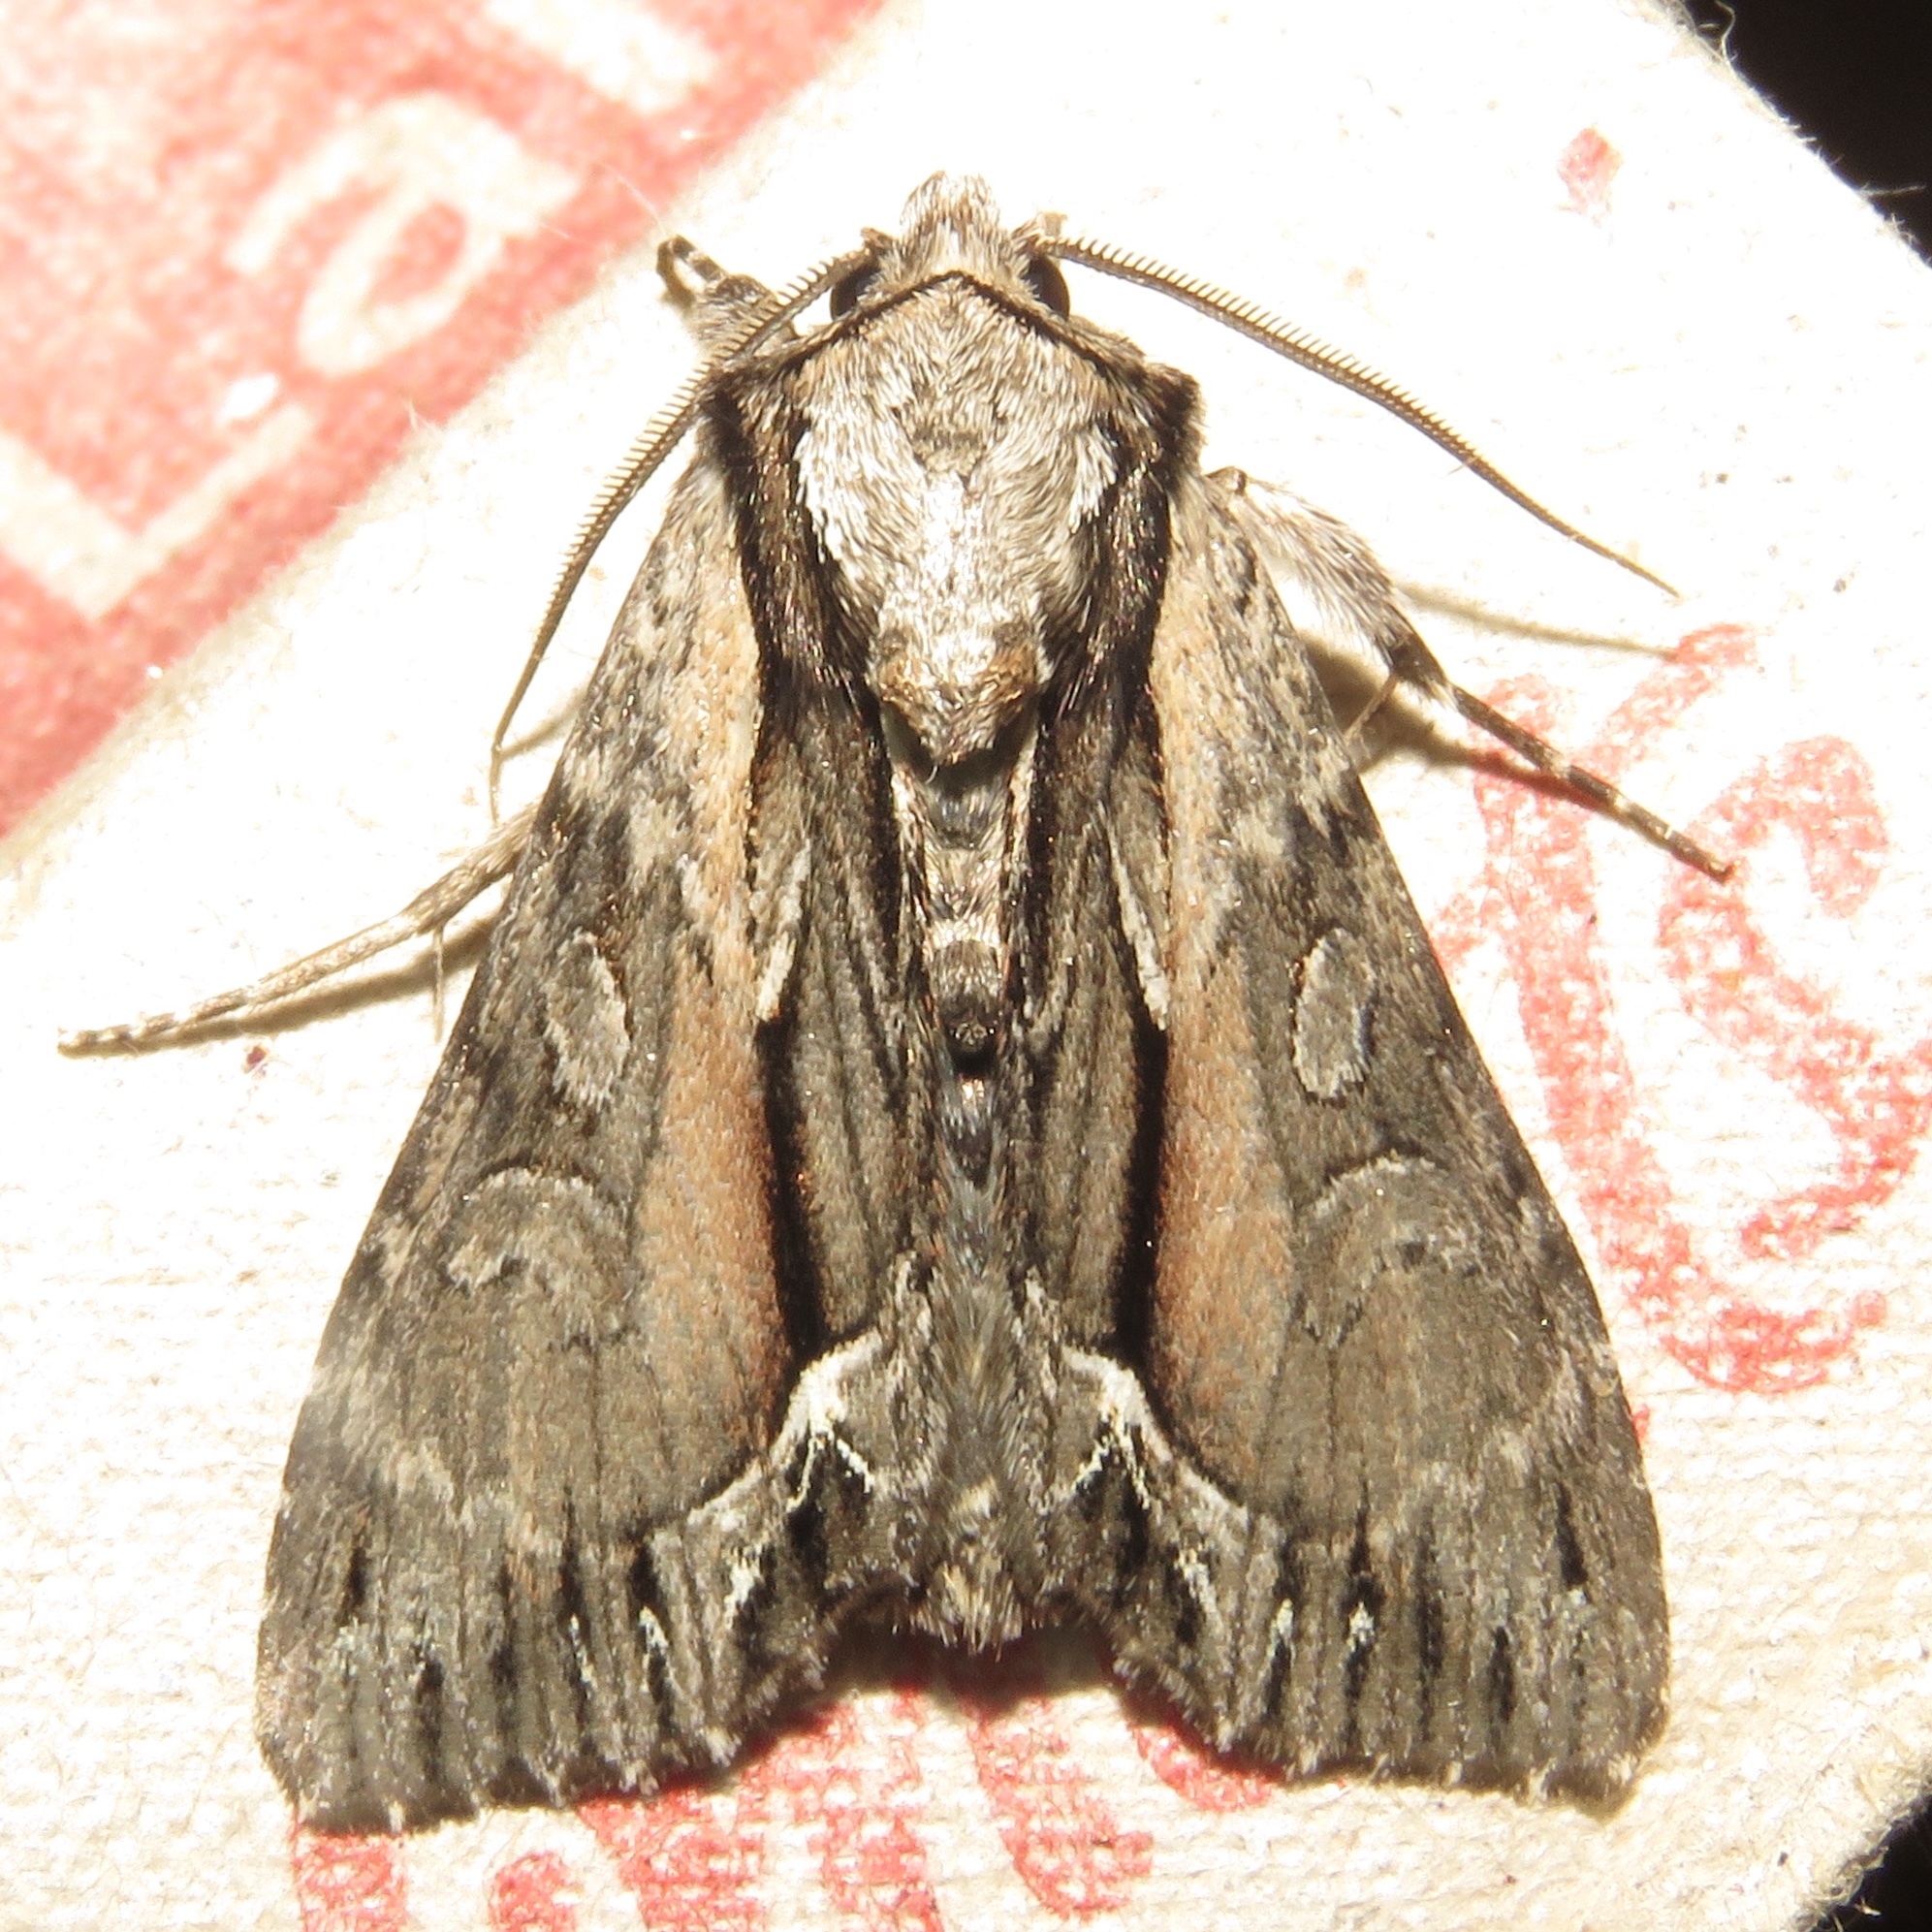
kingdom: Animalia
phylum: Arthropoda
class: Insecta
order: Lepidoptera
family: Noctuidae
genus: Hyppa
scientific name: Hyppa xylinoides
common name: Common hyppa moth
